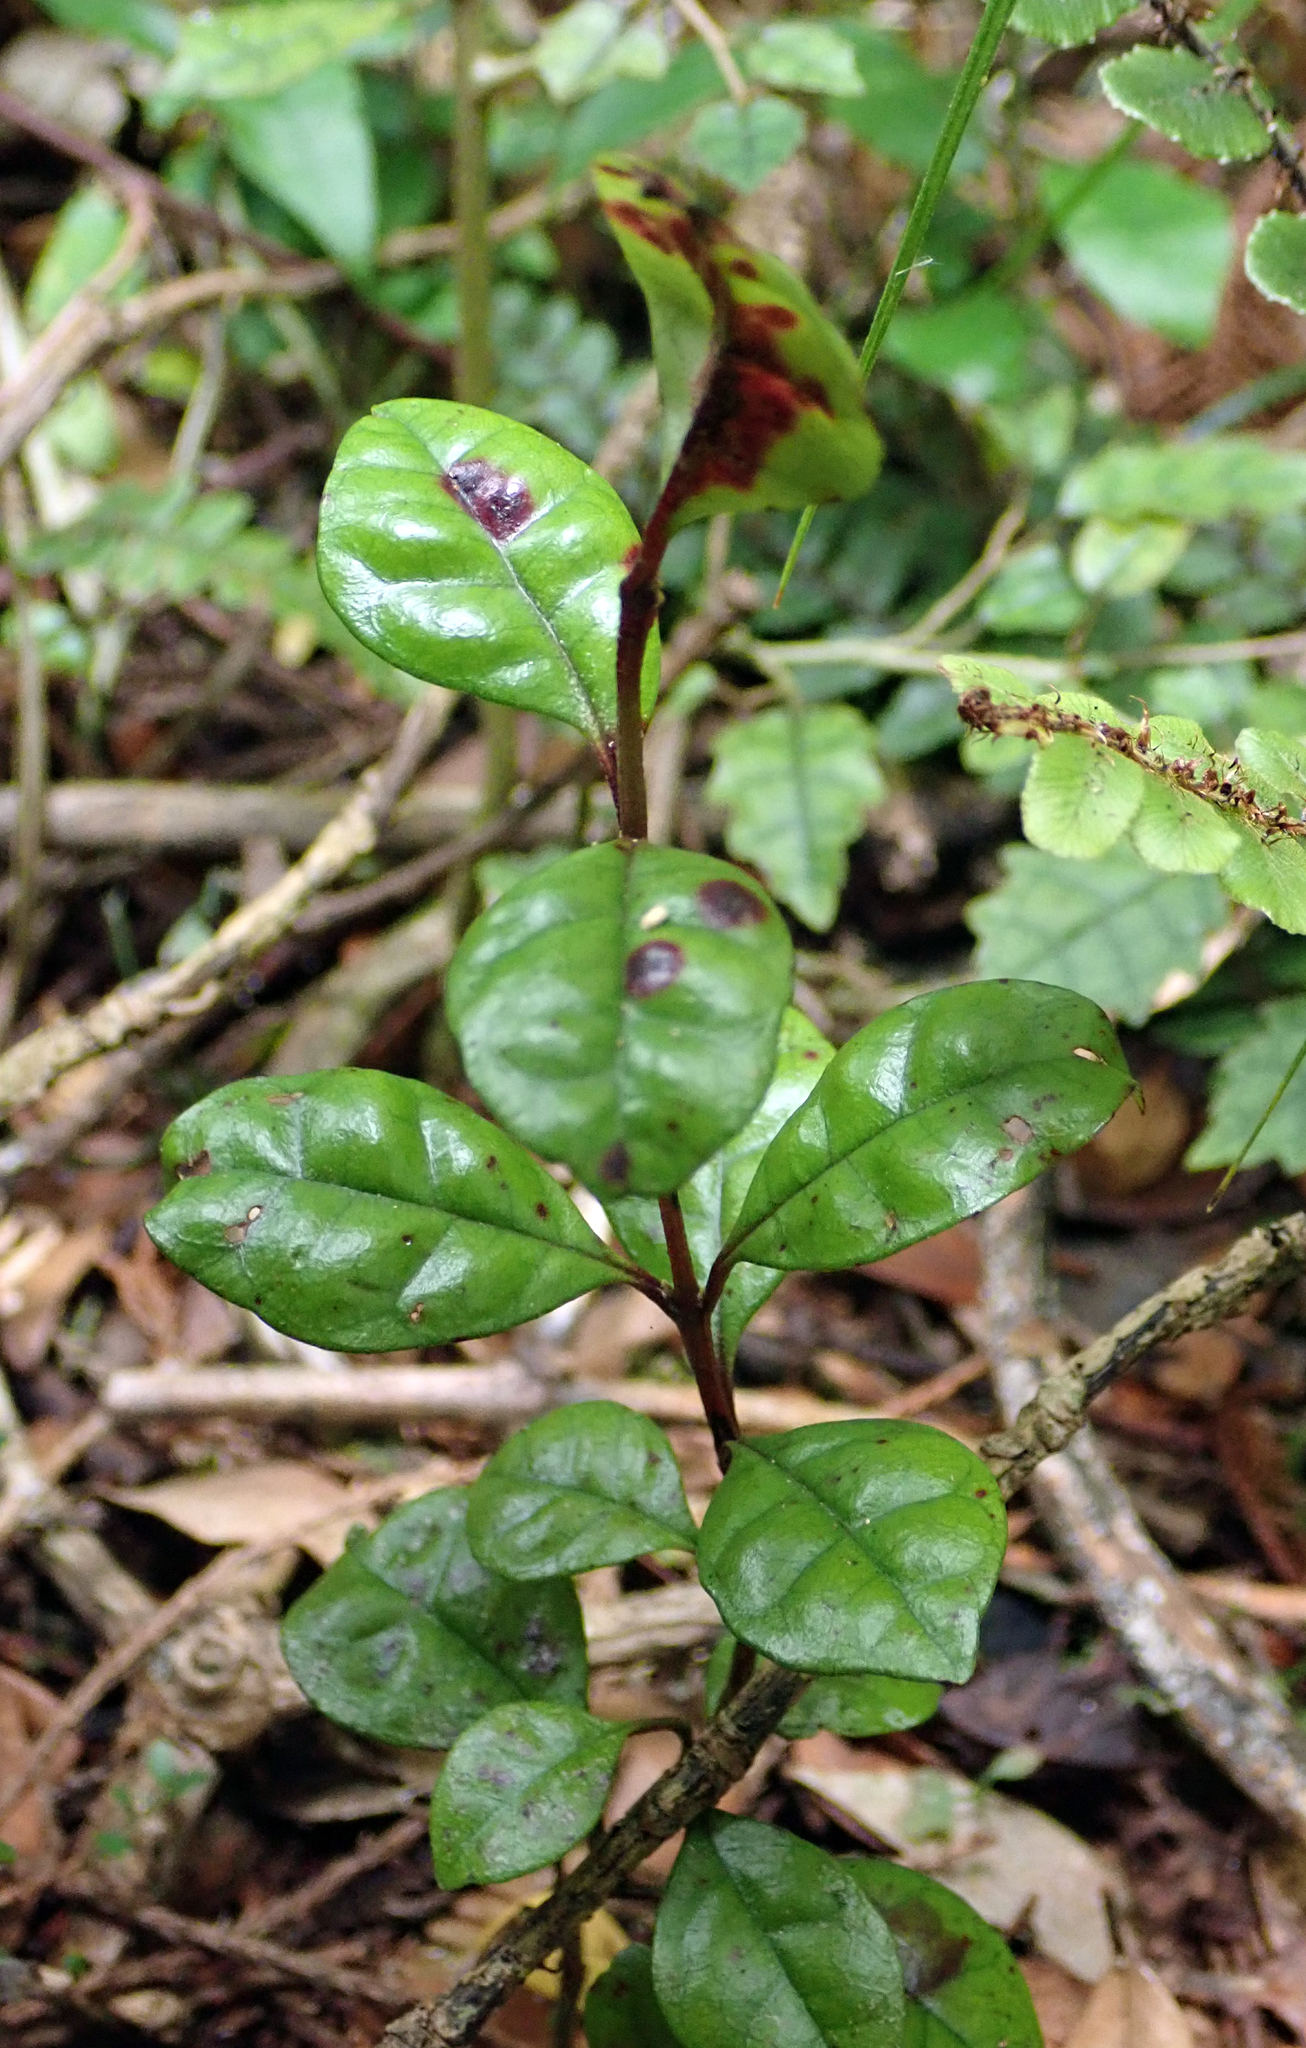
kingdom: Fungi
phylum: Basidiomycota
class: Pucciniomycetes
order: Pucciniales
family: Sphaerophragmiaceae
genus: Austropuccinia
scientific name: Austropuccinia psidii
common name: Myrtle rust
